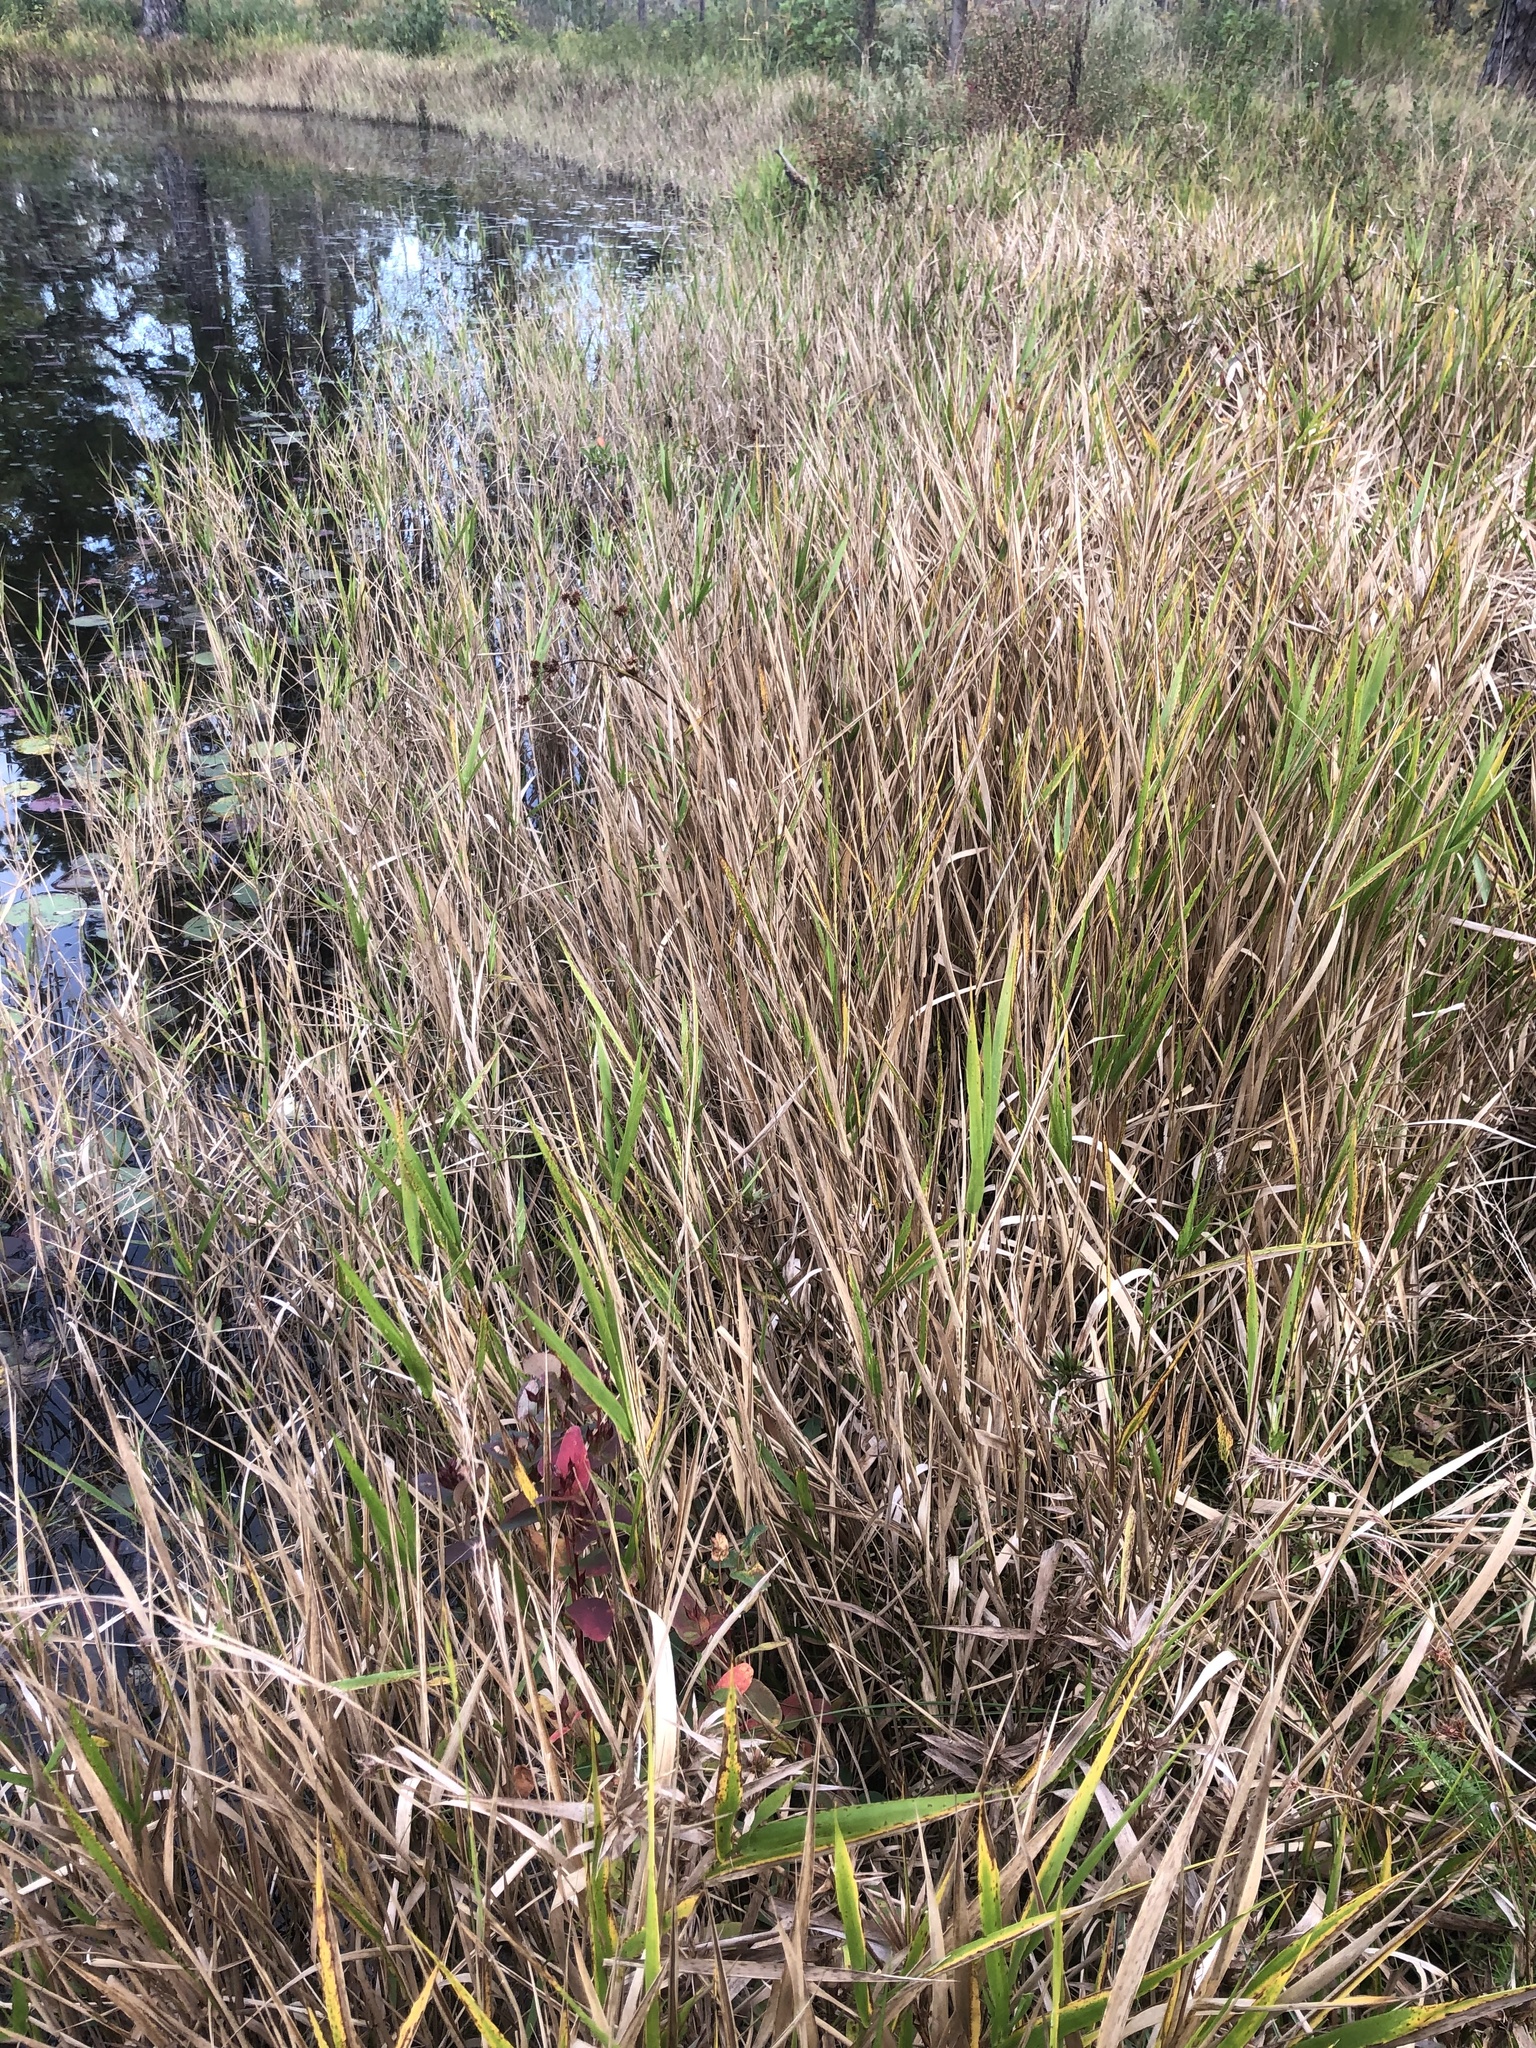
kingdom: Plantae
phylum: Tracheophyta
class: Liliopsida
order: Poales
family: Poaceae
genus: Panicum
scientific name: Panicum hemitomon
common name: Maidencane
